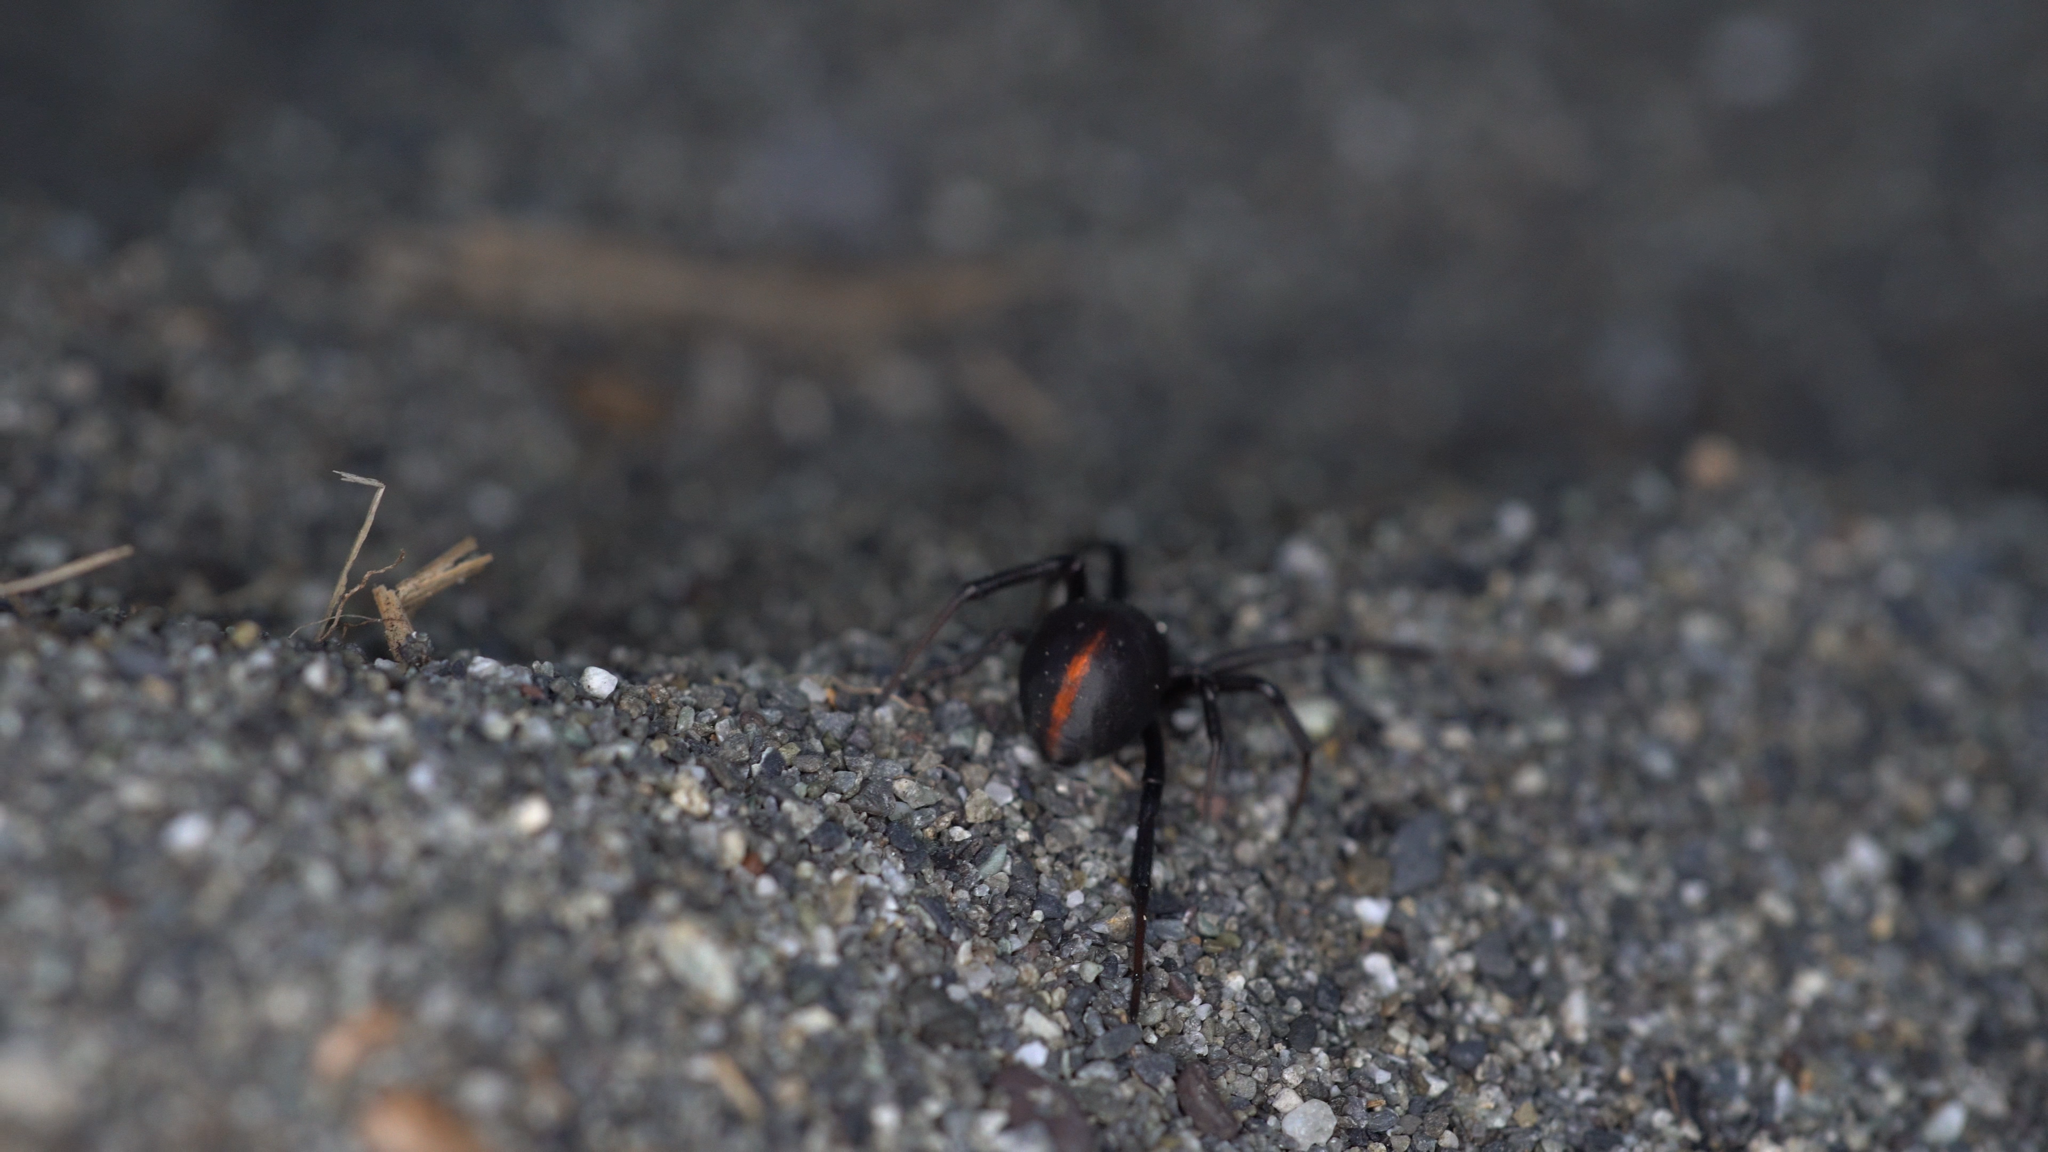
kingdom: Animalia
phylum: Arthropoda
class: Arachnida
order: Araneae
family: Theridiidae
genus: Latrodectus
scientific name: Latrodectus katipo
